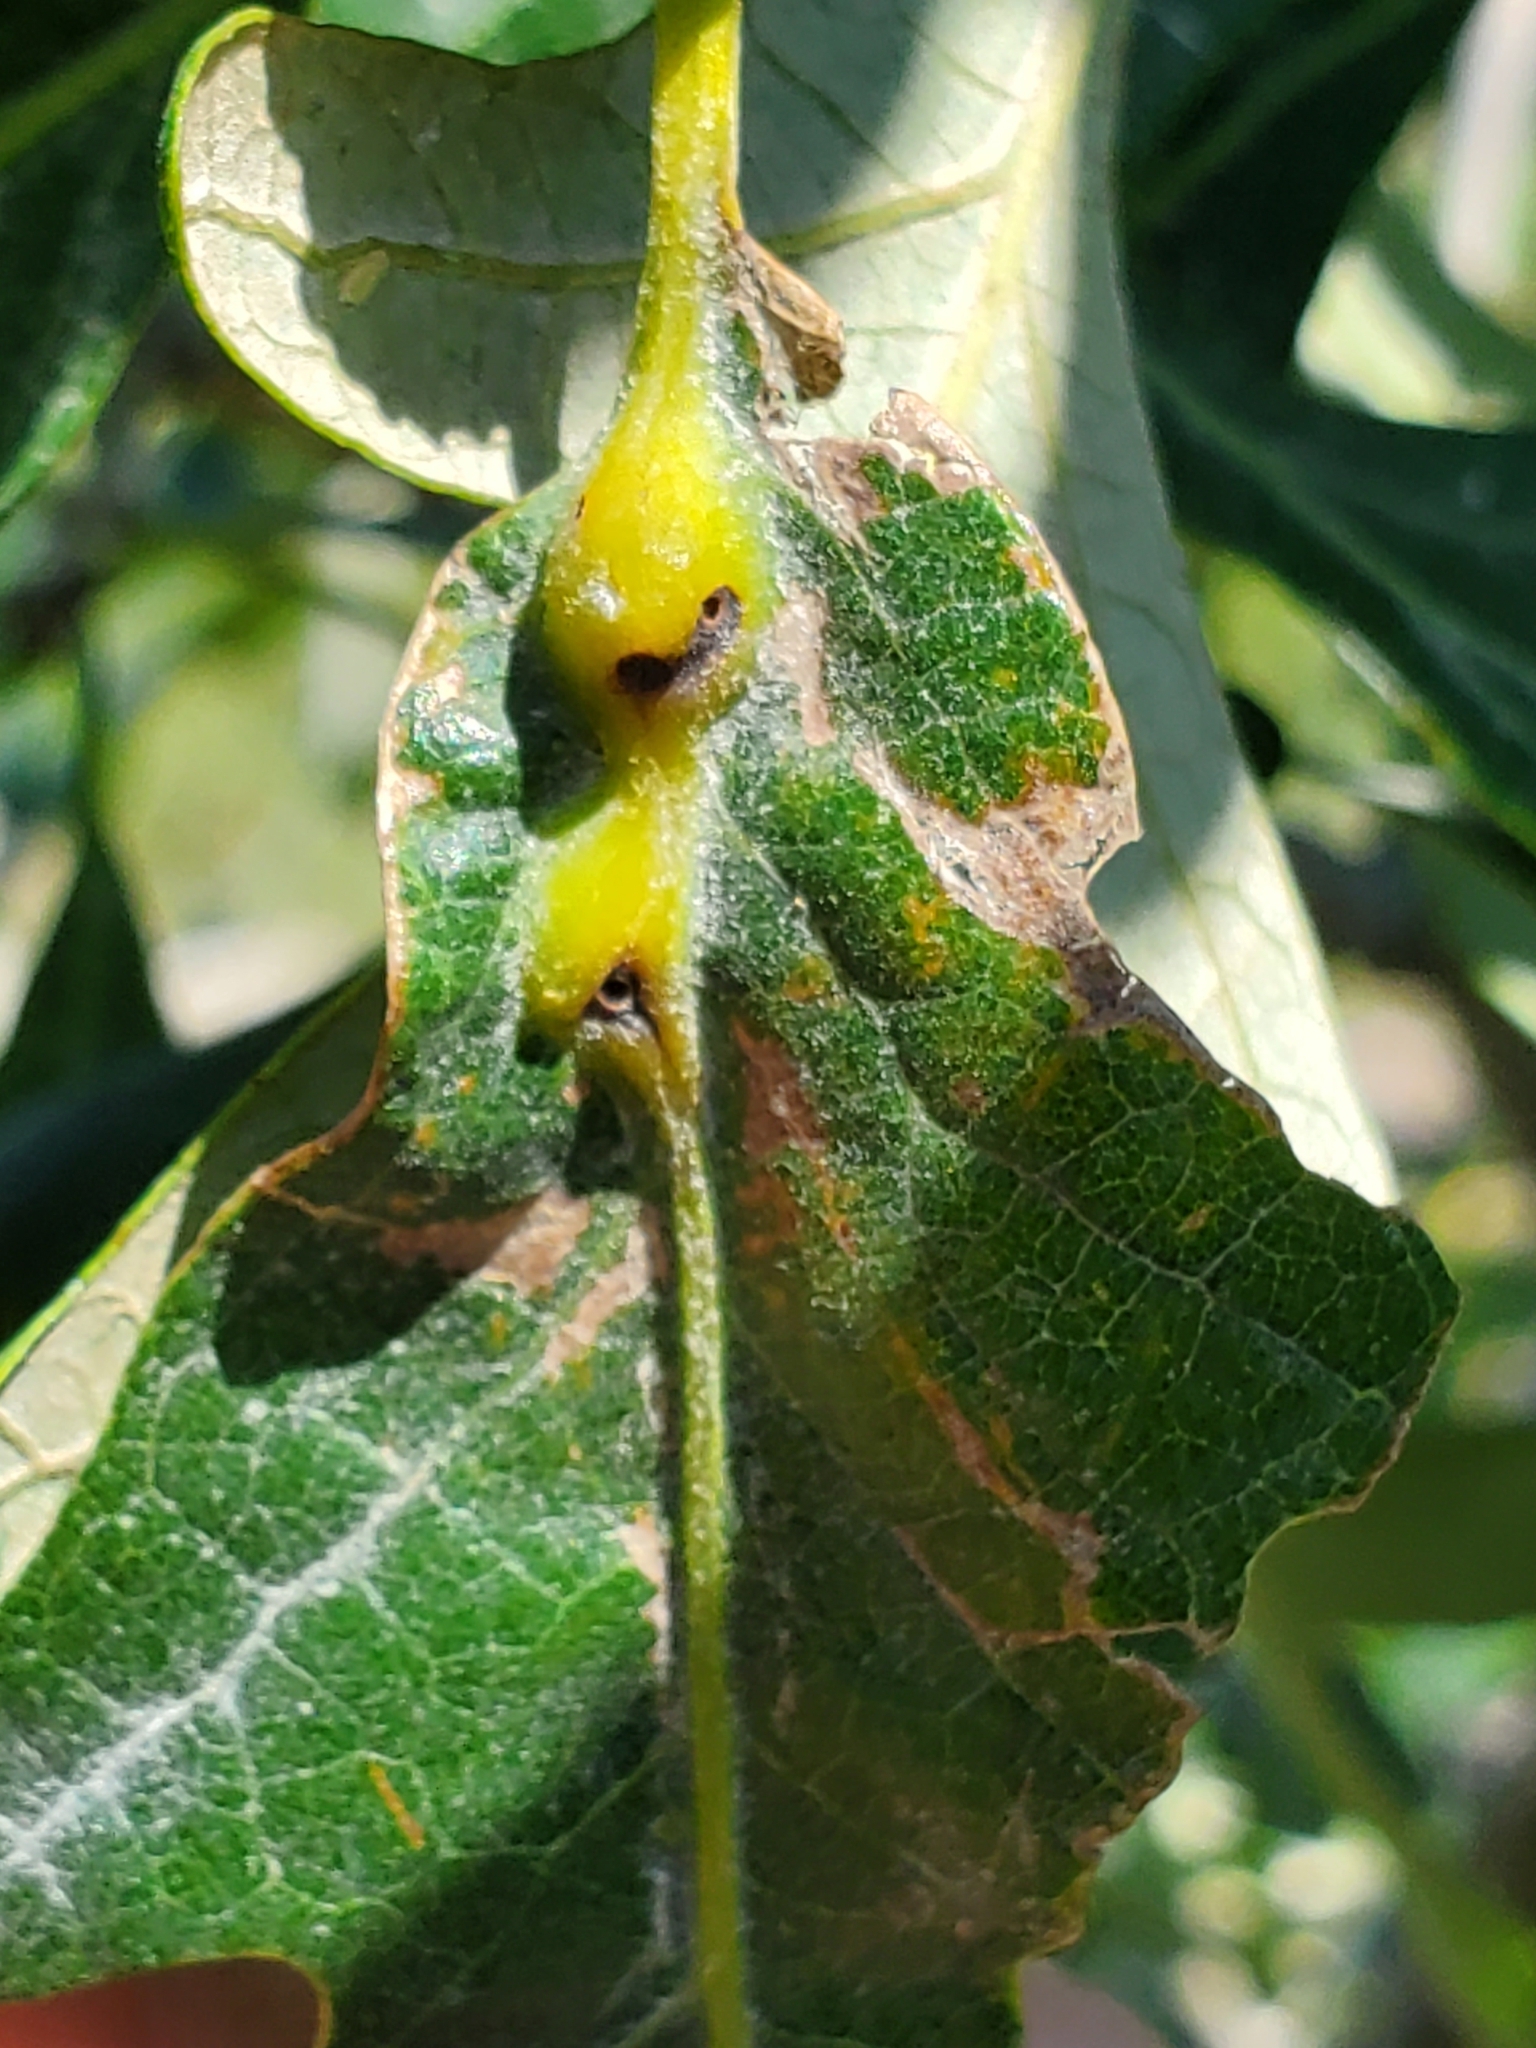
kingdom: Animalia
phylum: Arthropoda
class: Insecta
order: Hymenoptera
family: Cynipidae
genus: Bassettia
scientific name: Bassettia flavipes
